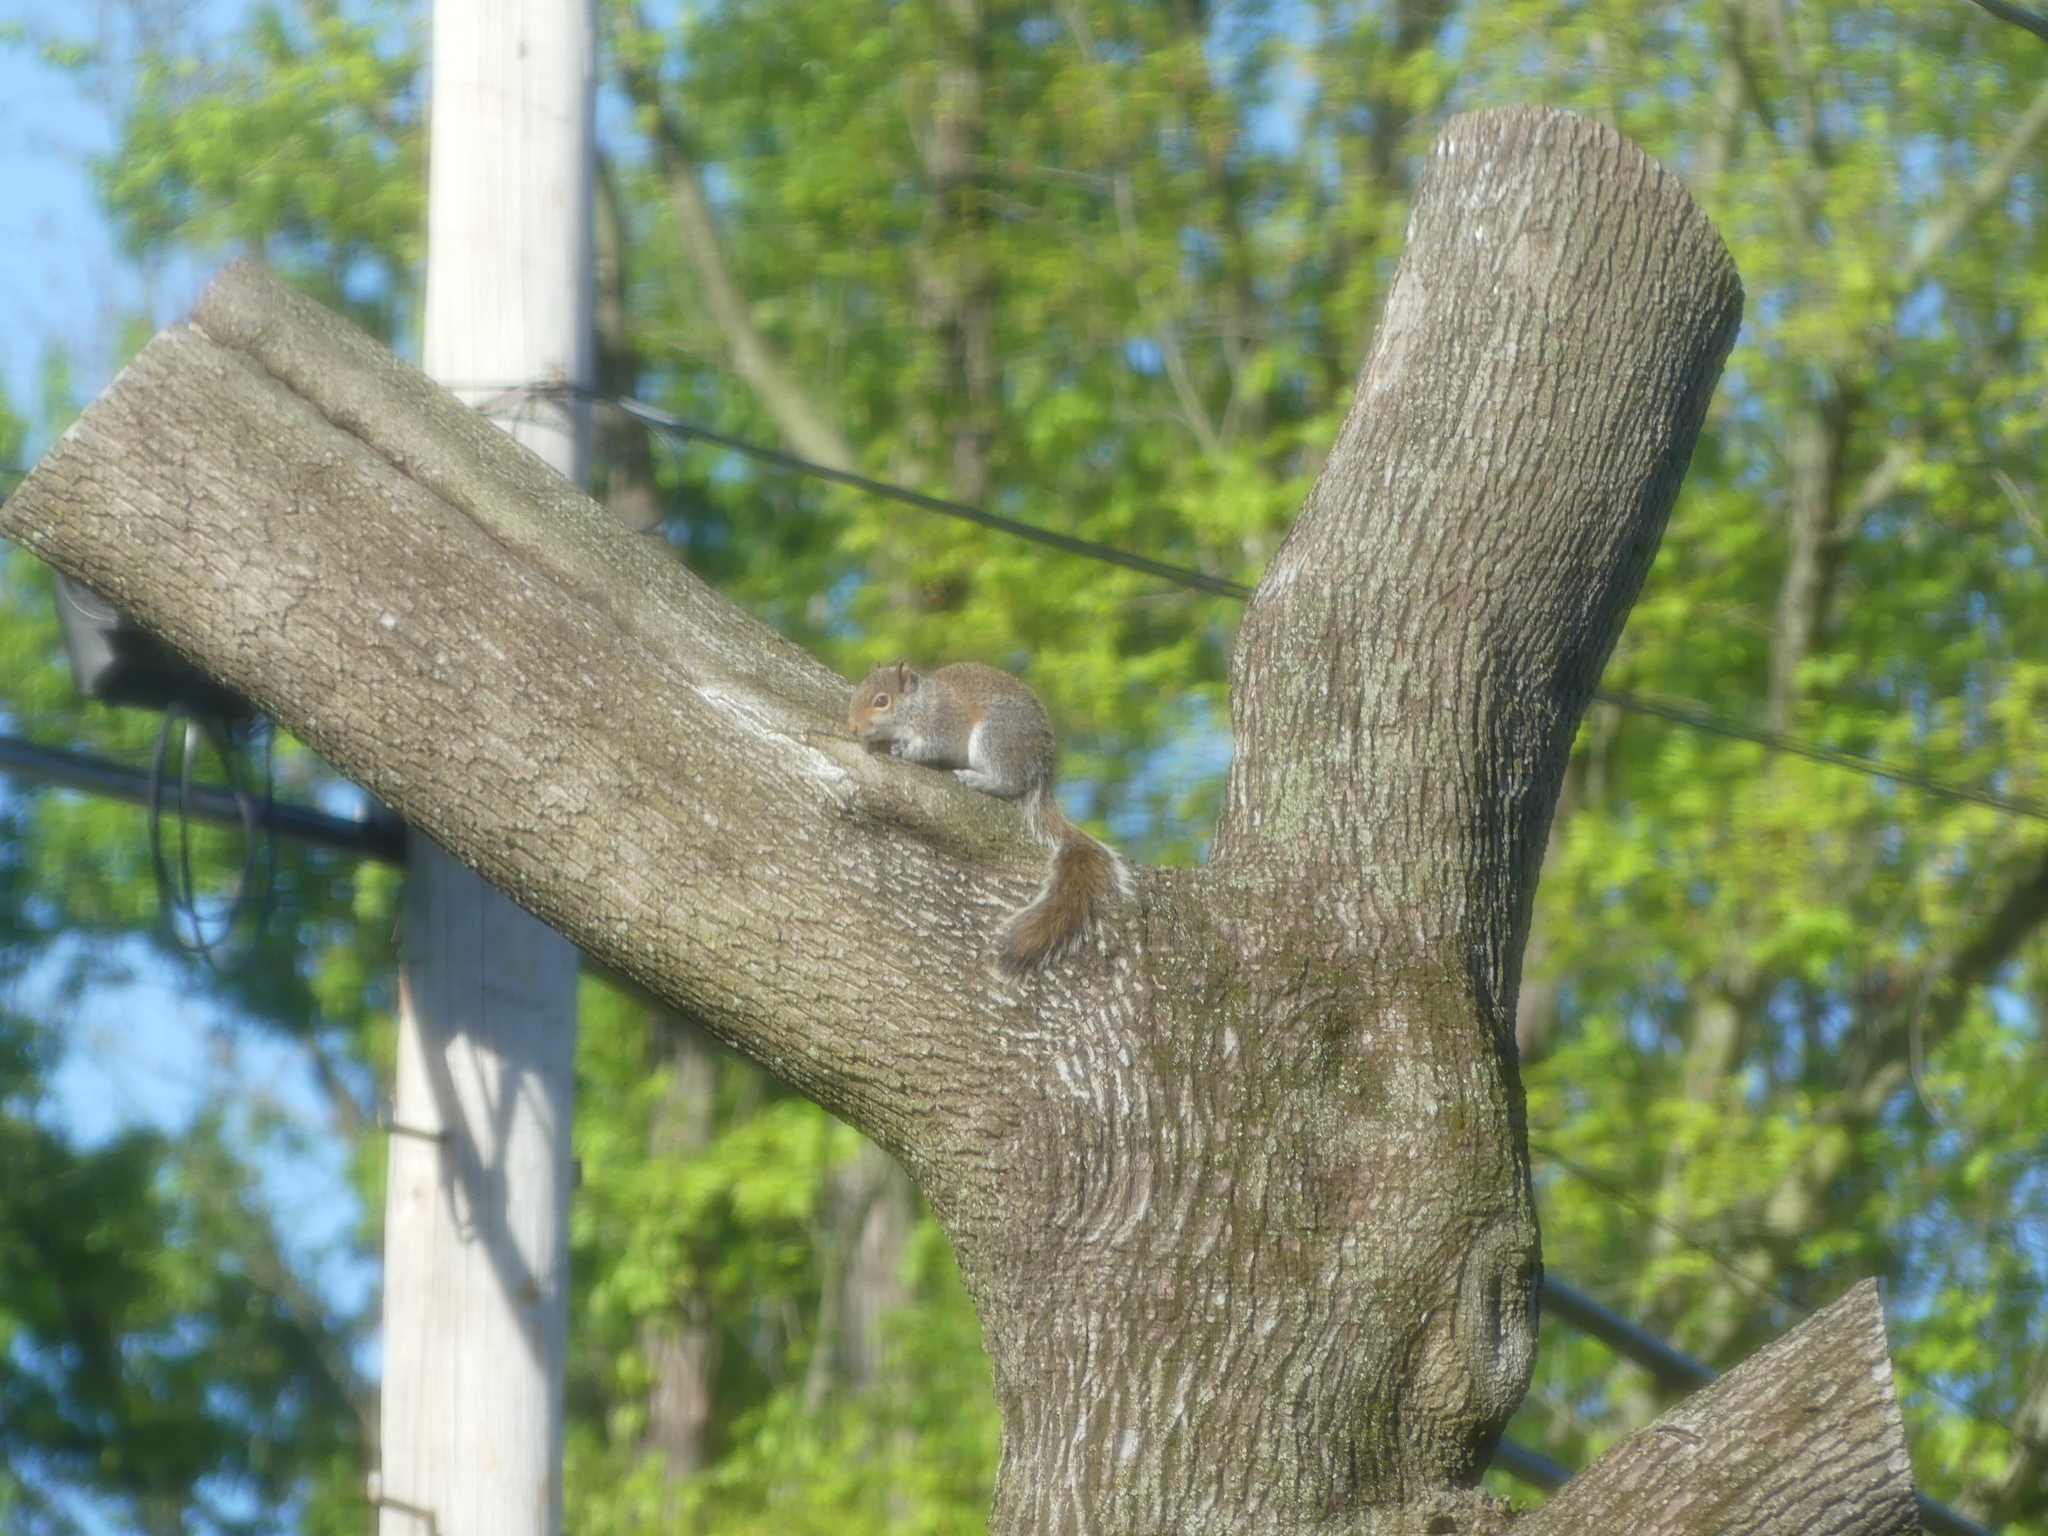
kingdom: Animalia
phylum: Chordata
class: Mammalia
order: Rodentia
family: Sciuridae
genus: Sciurus
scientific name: Sciurus carolinensis
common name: Eastern gray squirrel
